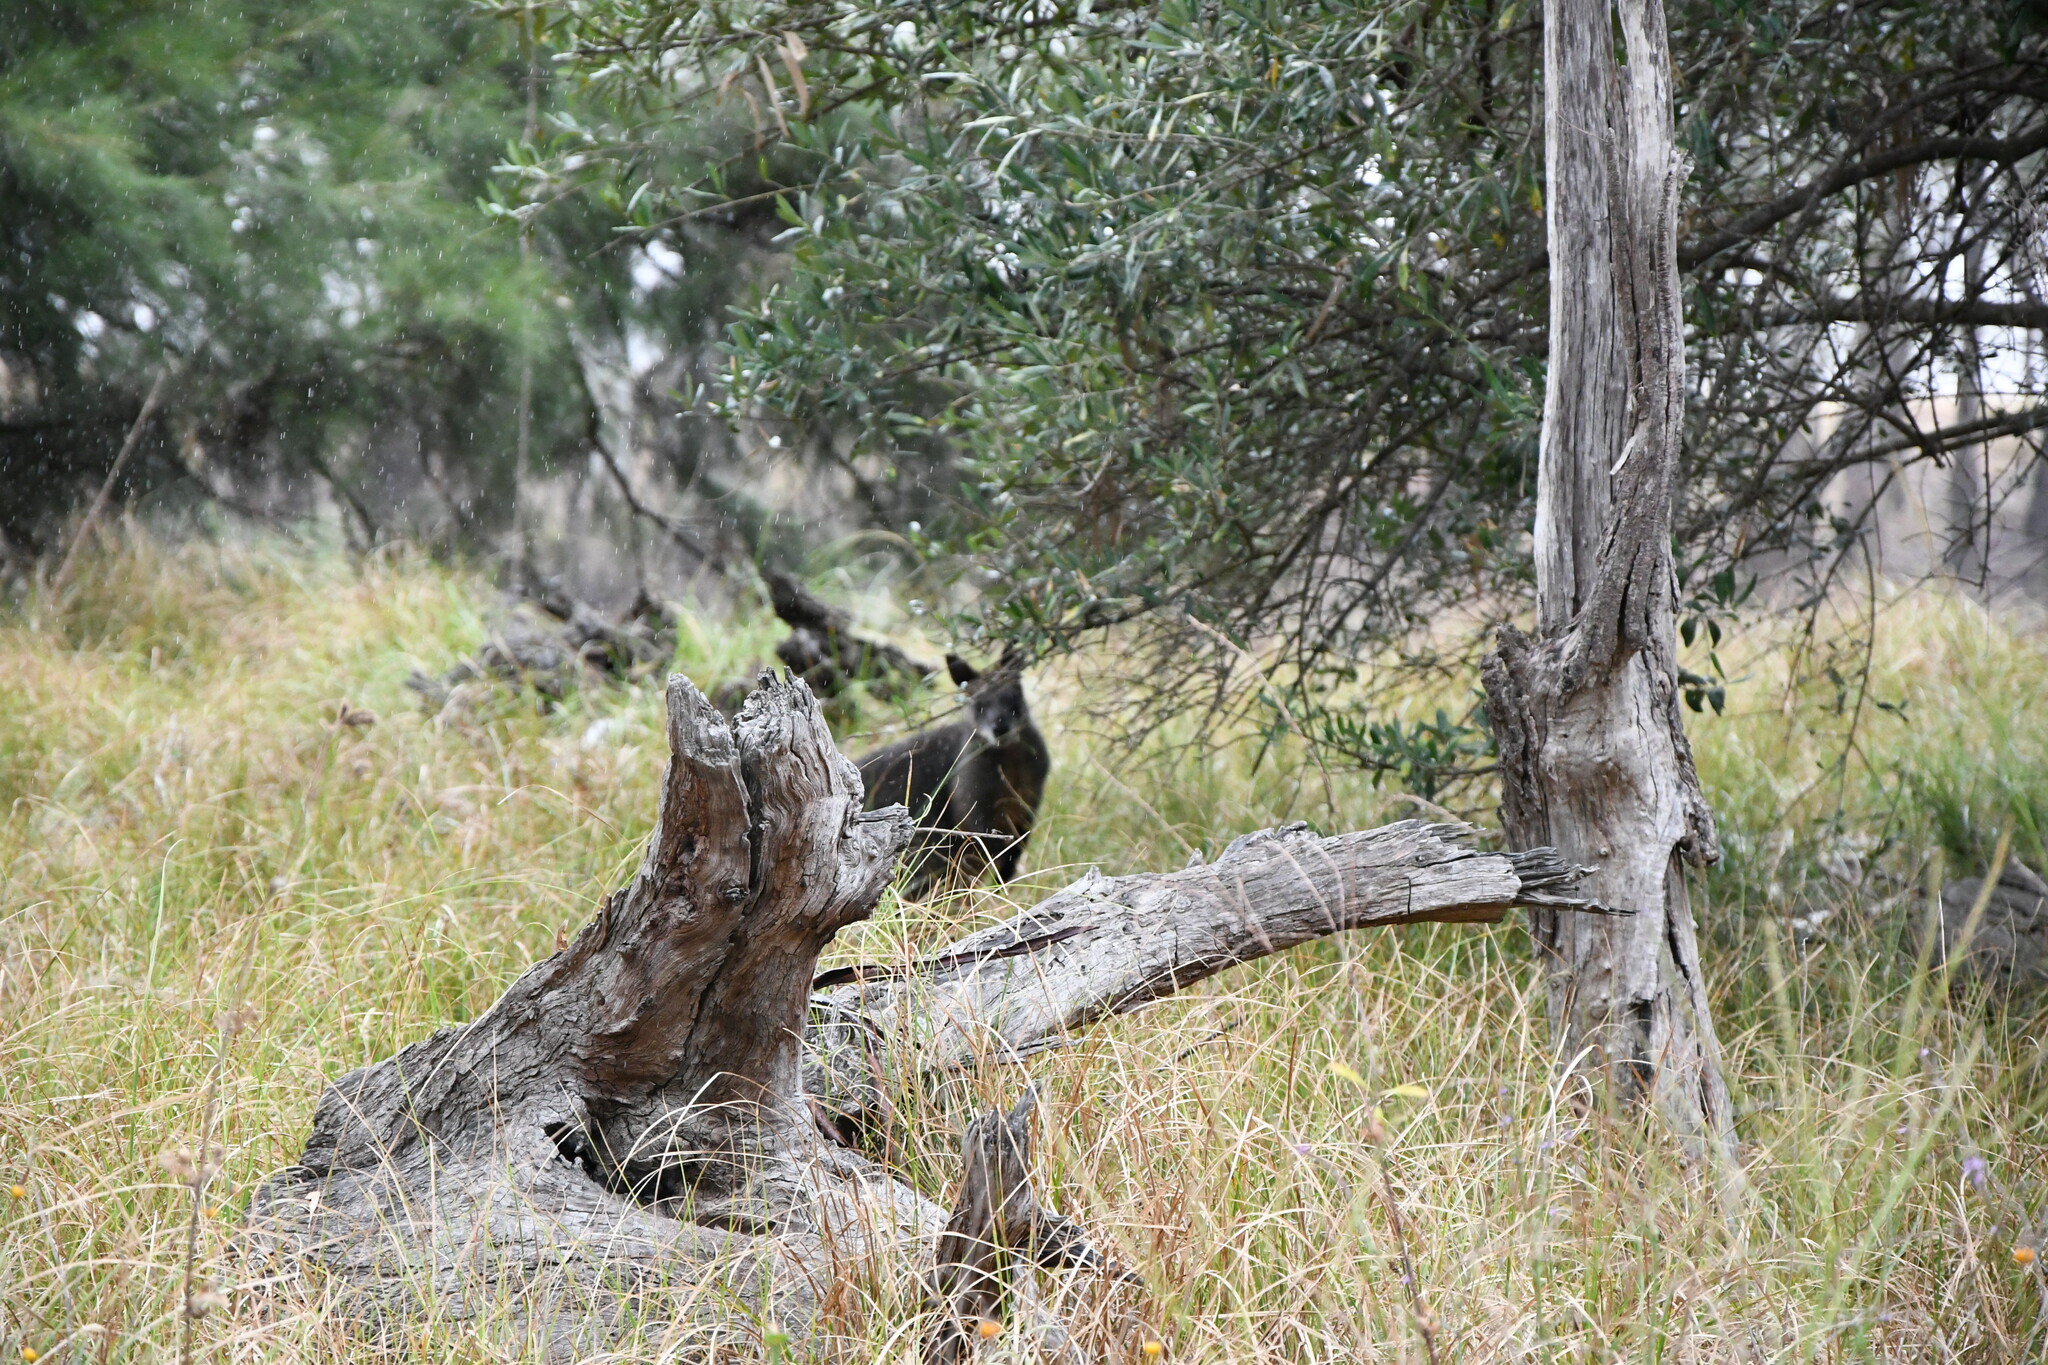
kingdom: Animalia
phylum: Chordata
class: Mammalia
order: Diprotodontia
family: Macropodidae
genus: Wallabia
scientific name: Wallabia bicolor
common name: Swamp wallaby
